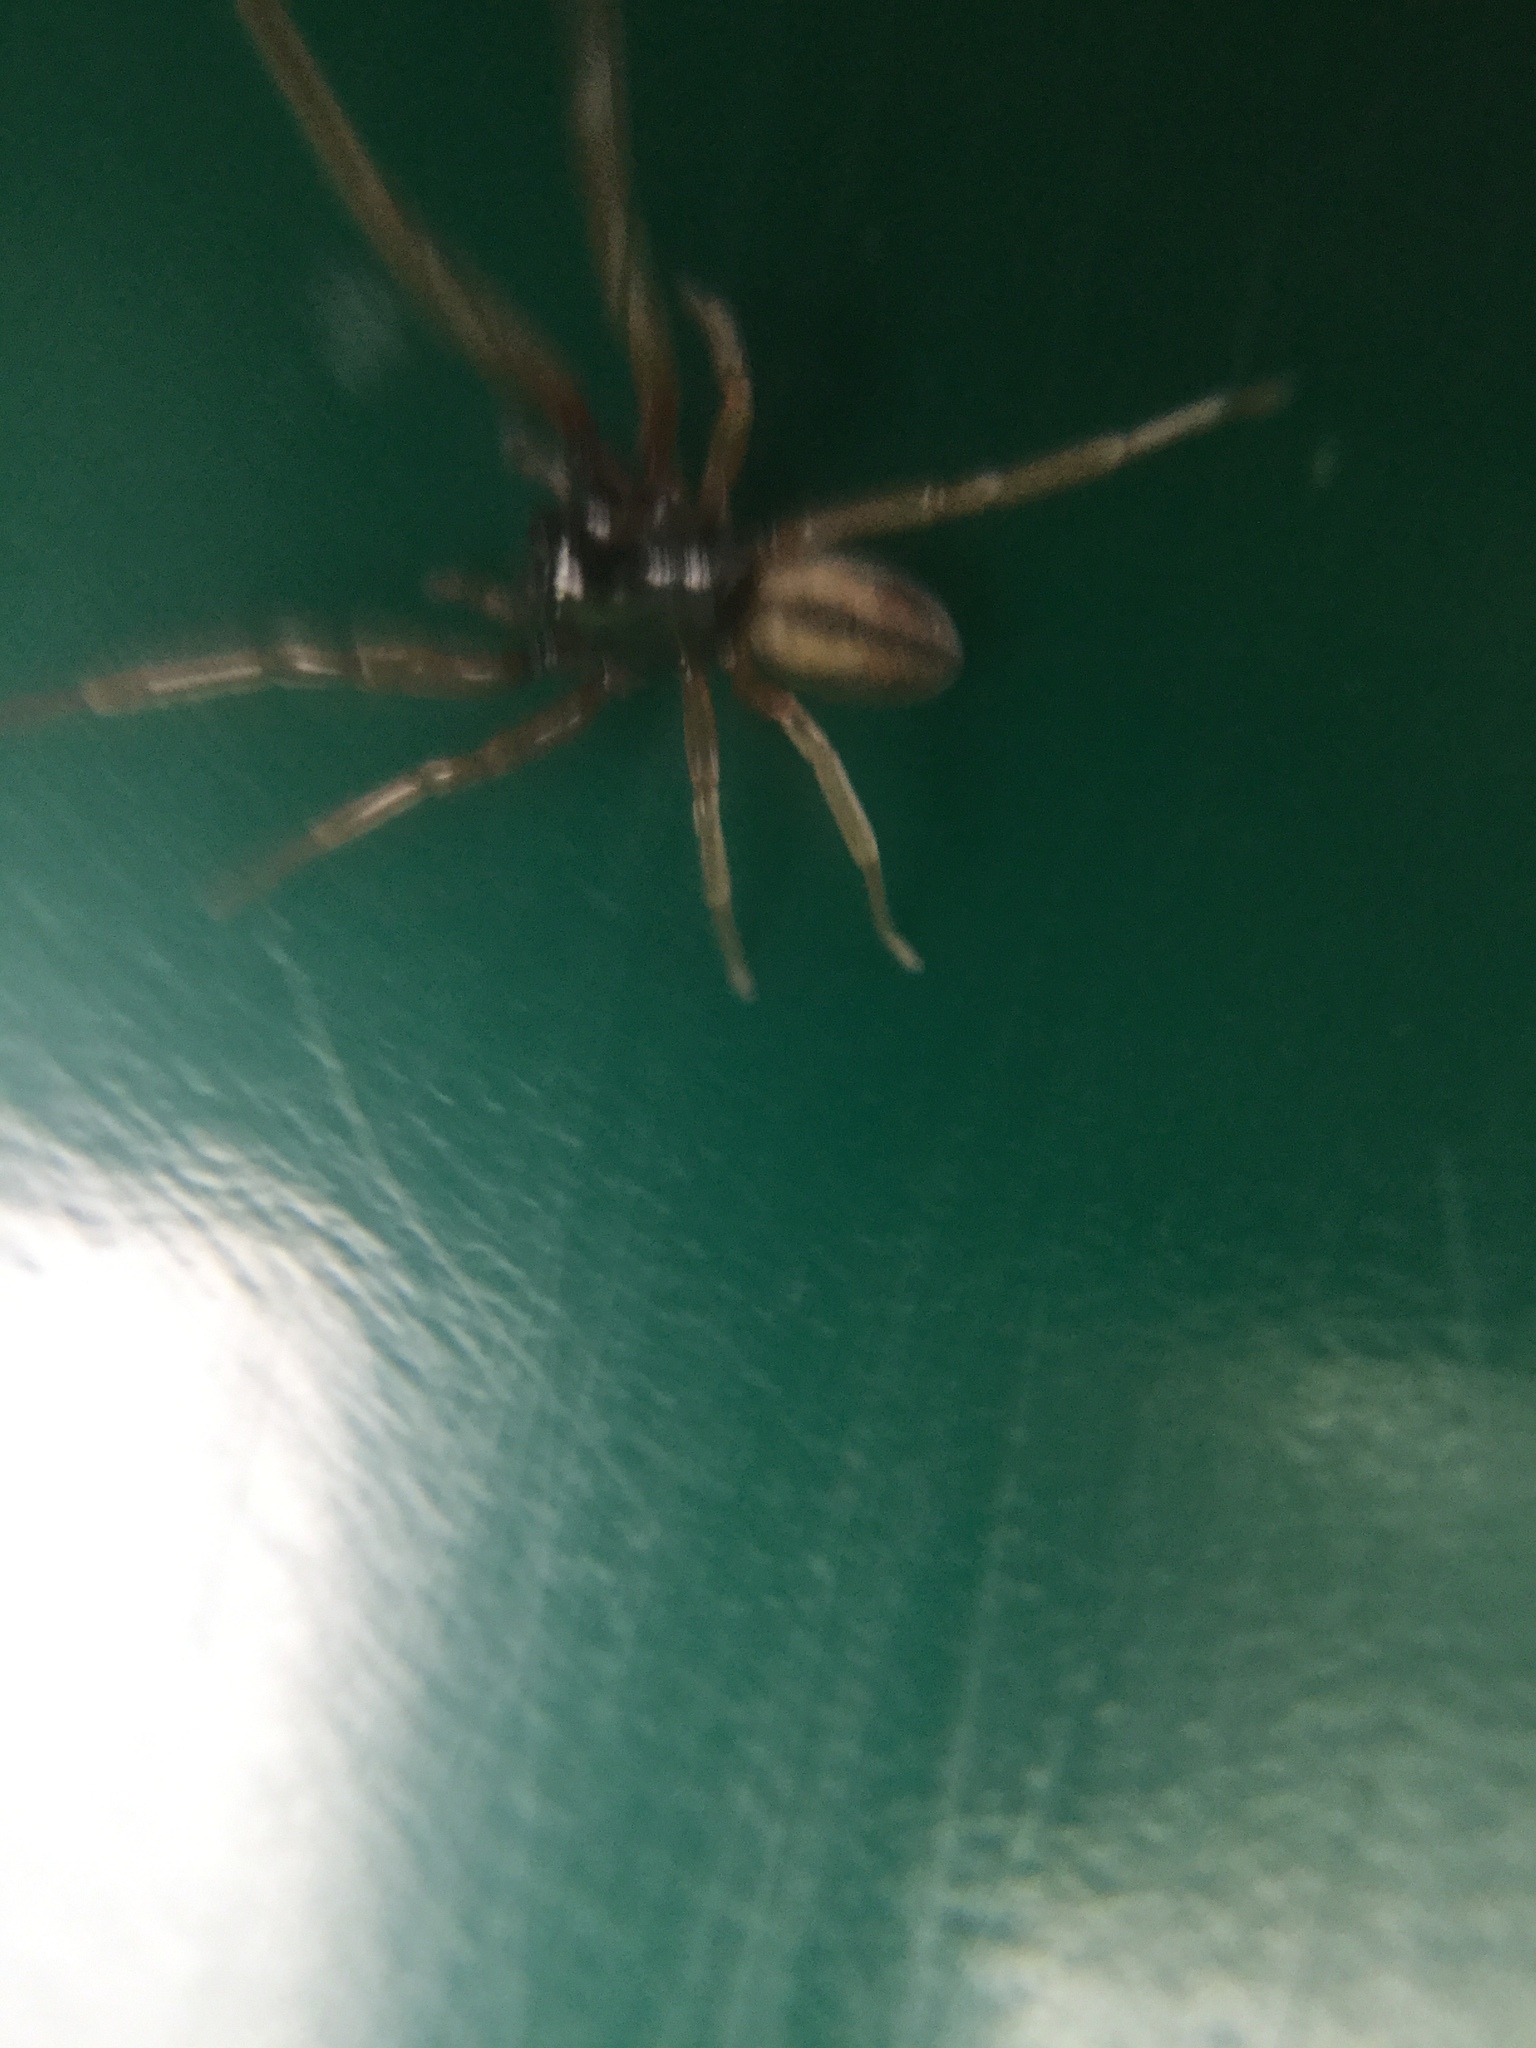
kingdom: Animalia
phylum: Arthropoda
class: Arachnida
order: Araneae
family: Trachelidae
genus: Meriola
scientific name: Meriola decepta
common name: Corinnid sac spiders
